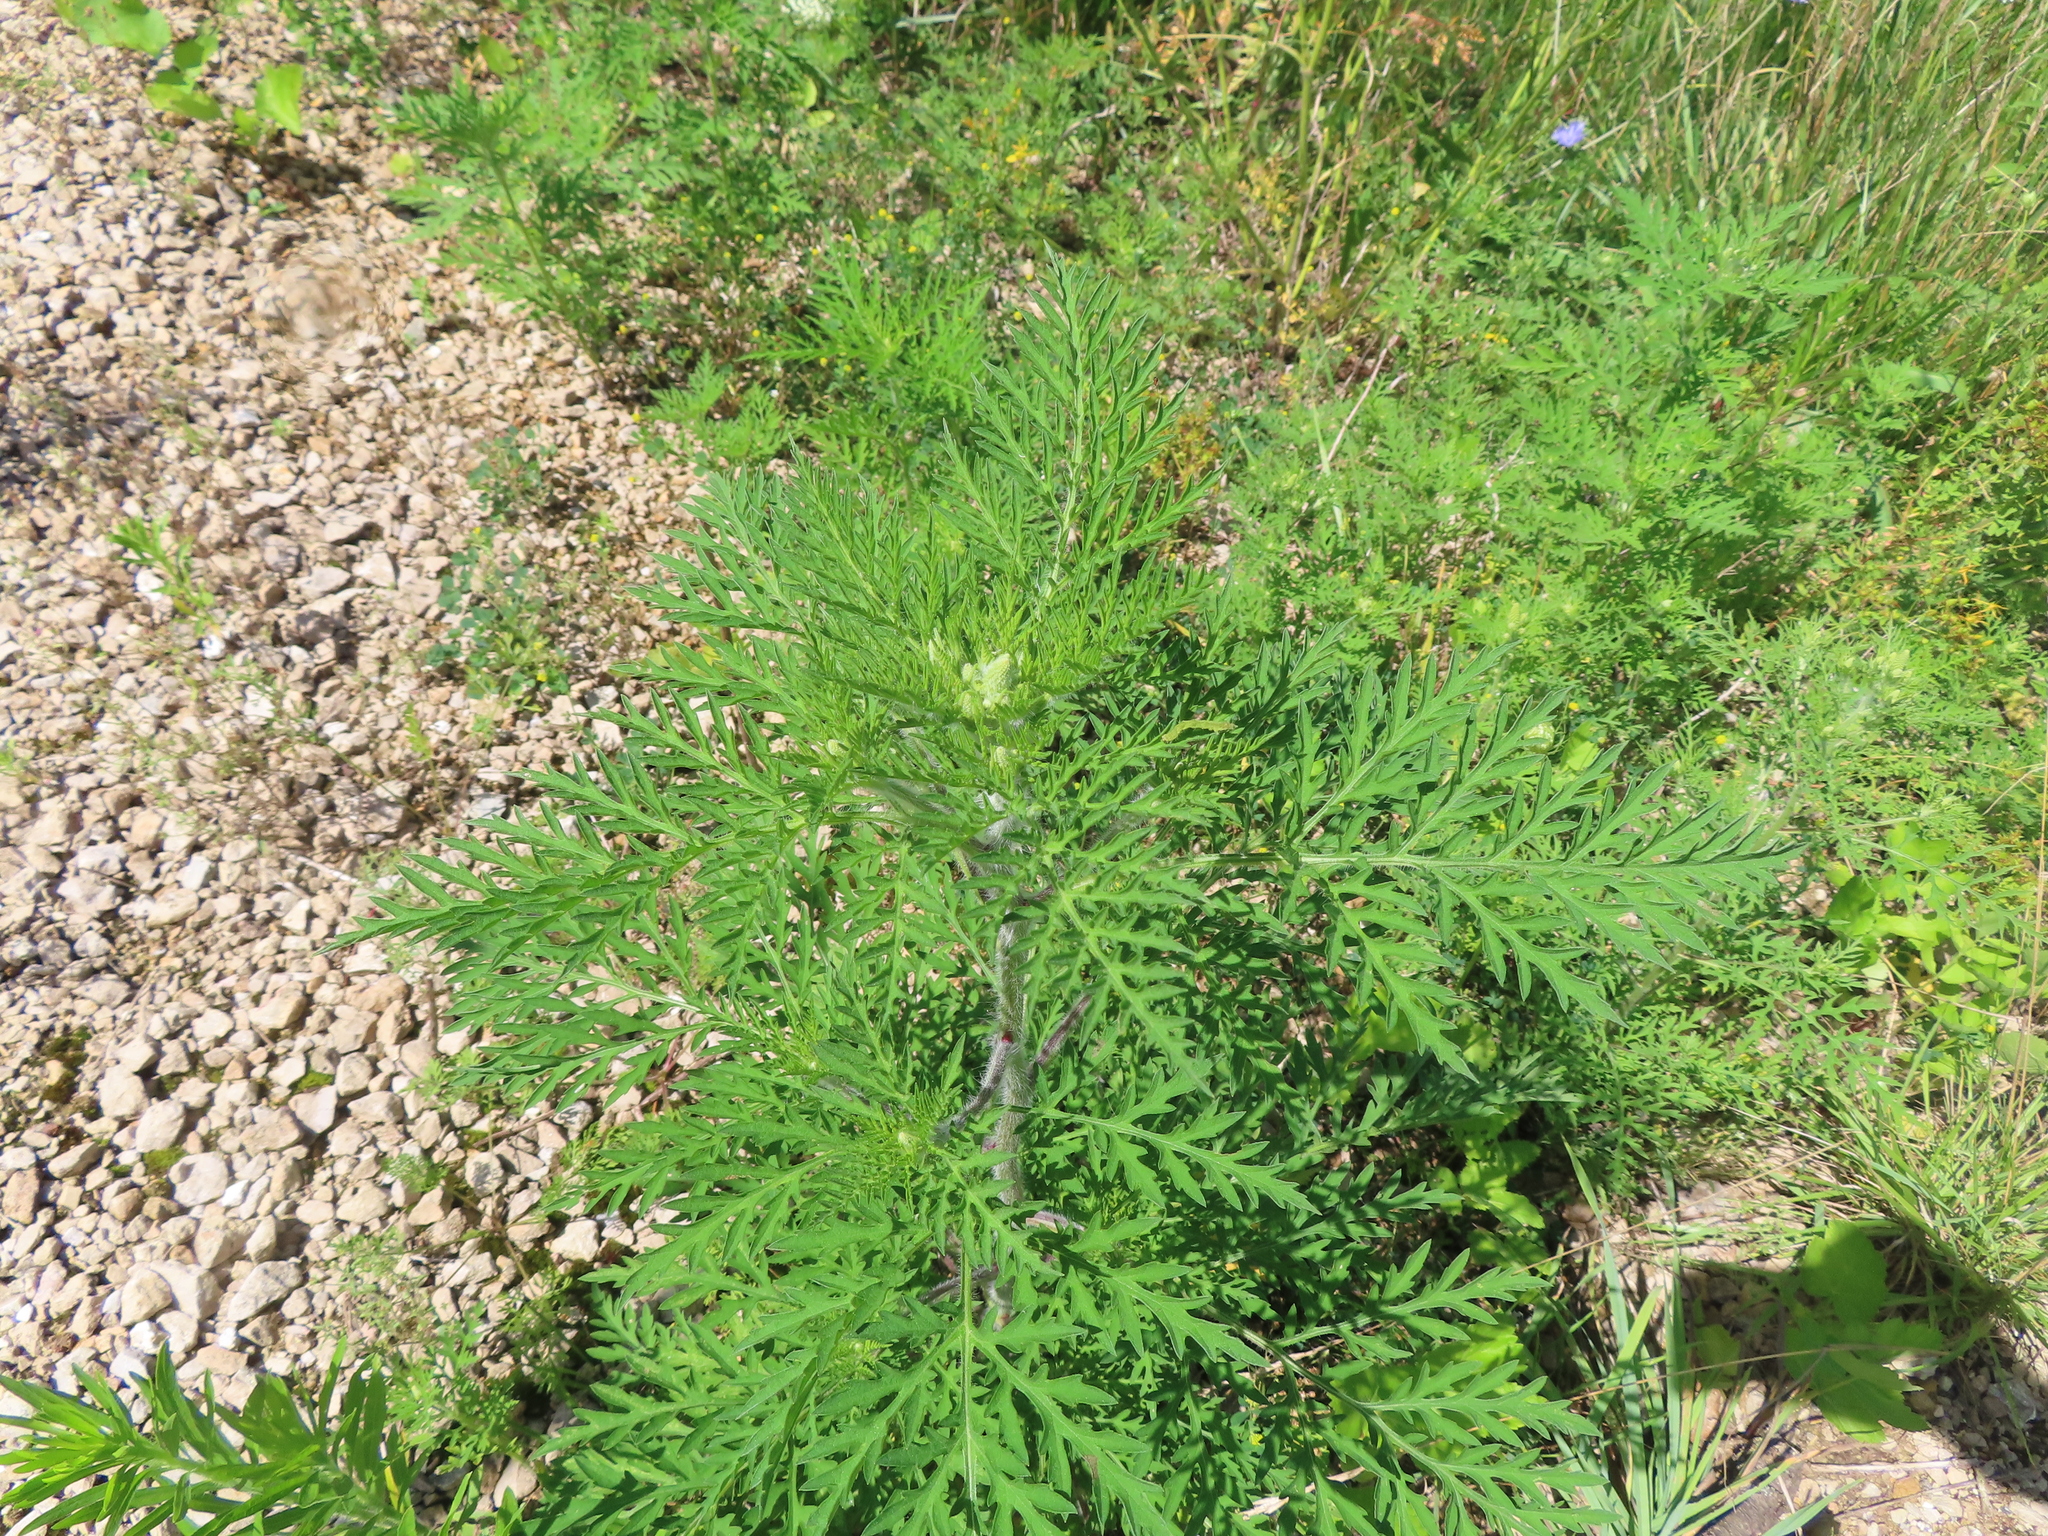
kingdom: Plantae
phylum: Tracheophyta
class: Magnoliopsida
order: Asterales
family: Asteraceae
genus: Ambrosia
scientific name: Ambrosia artemisiifolia
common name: Annual ragweed
